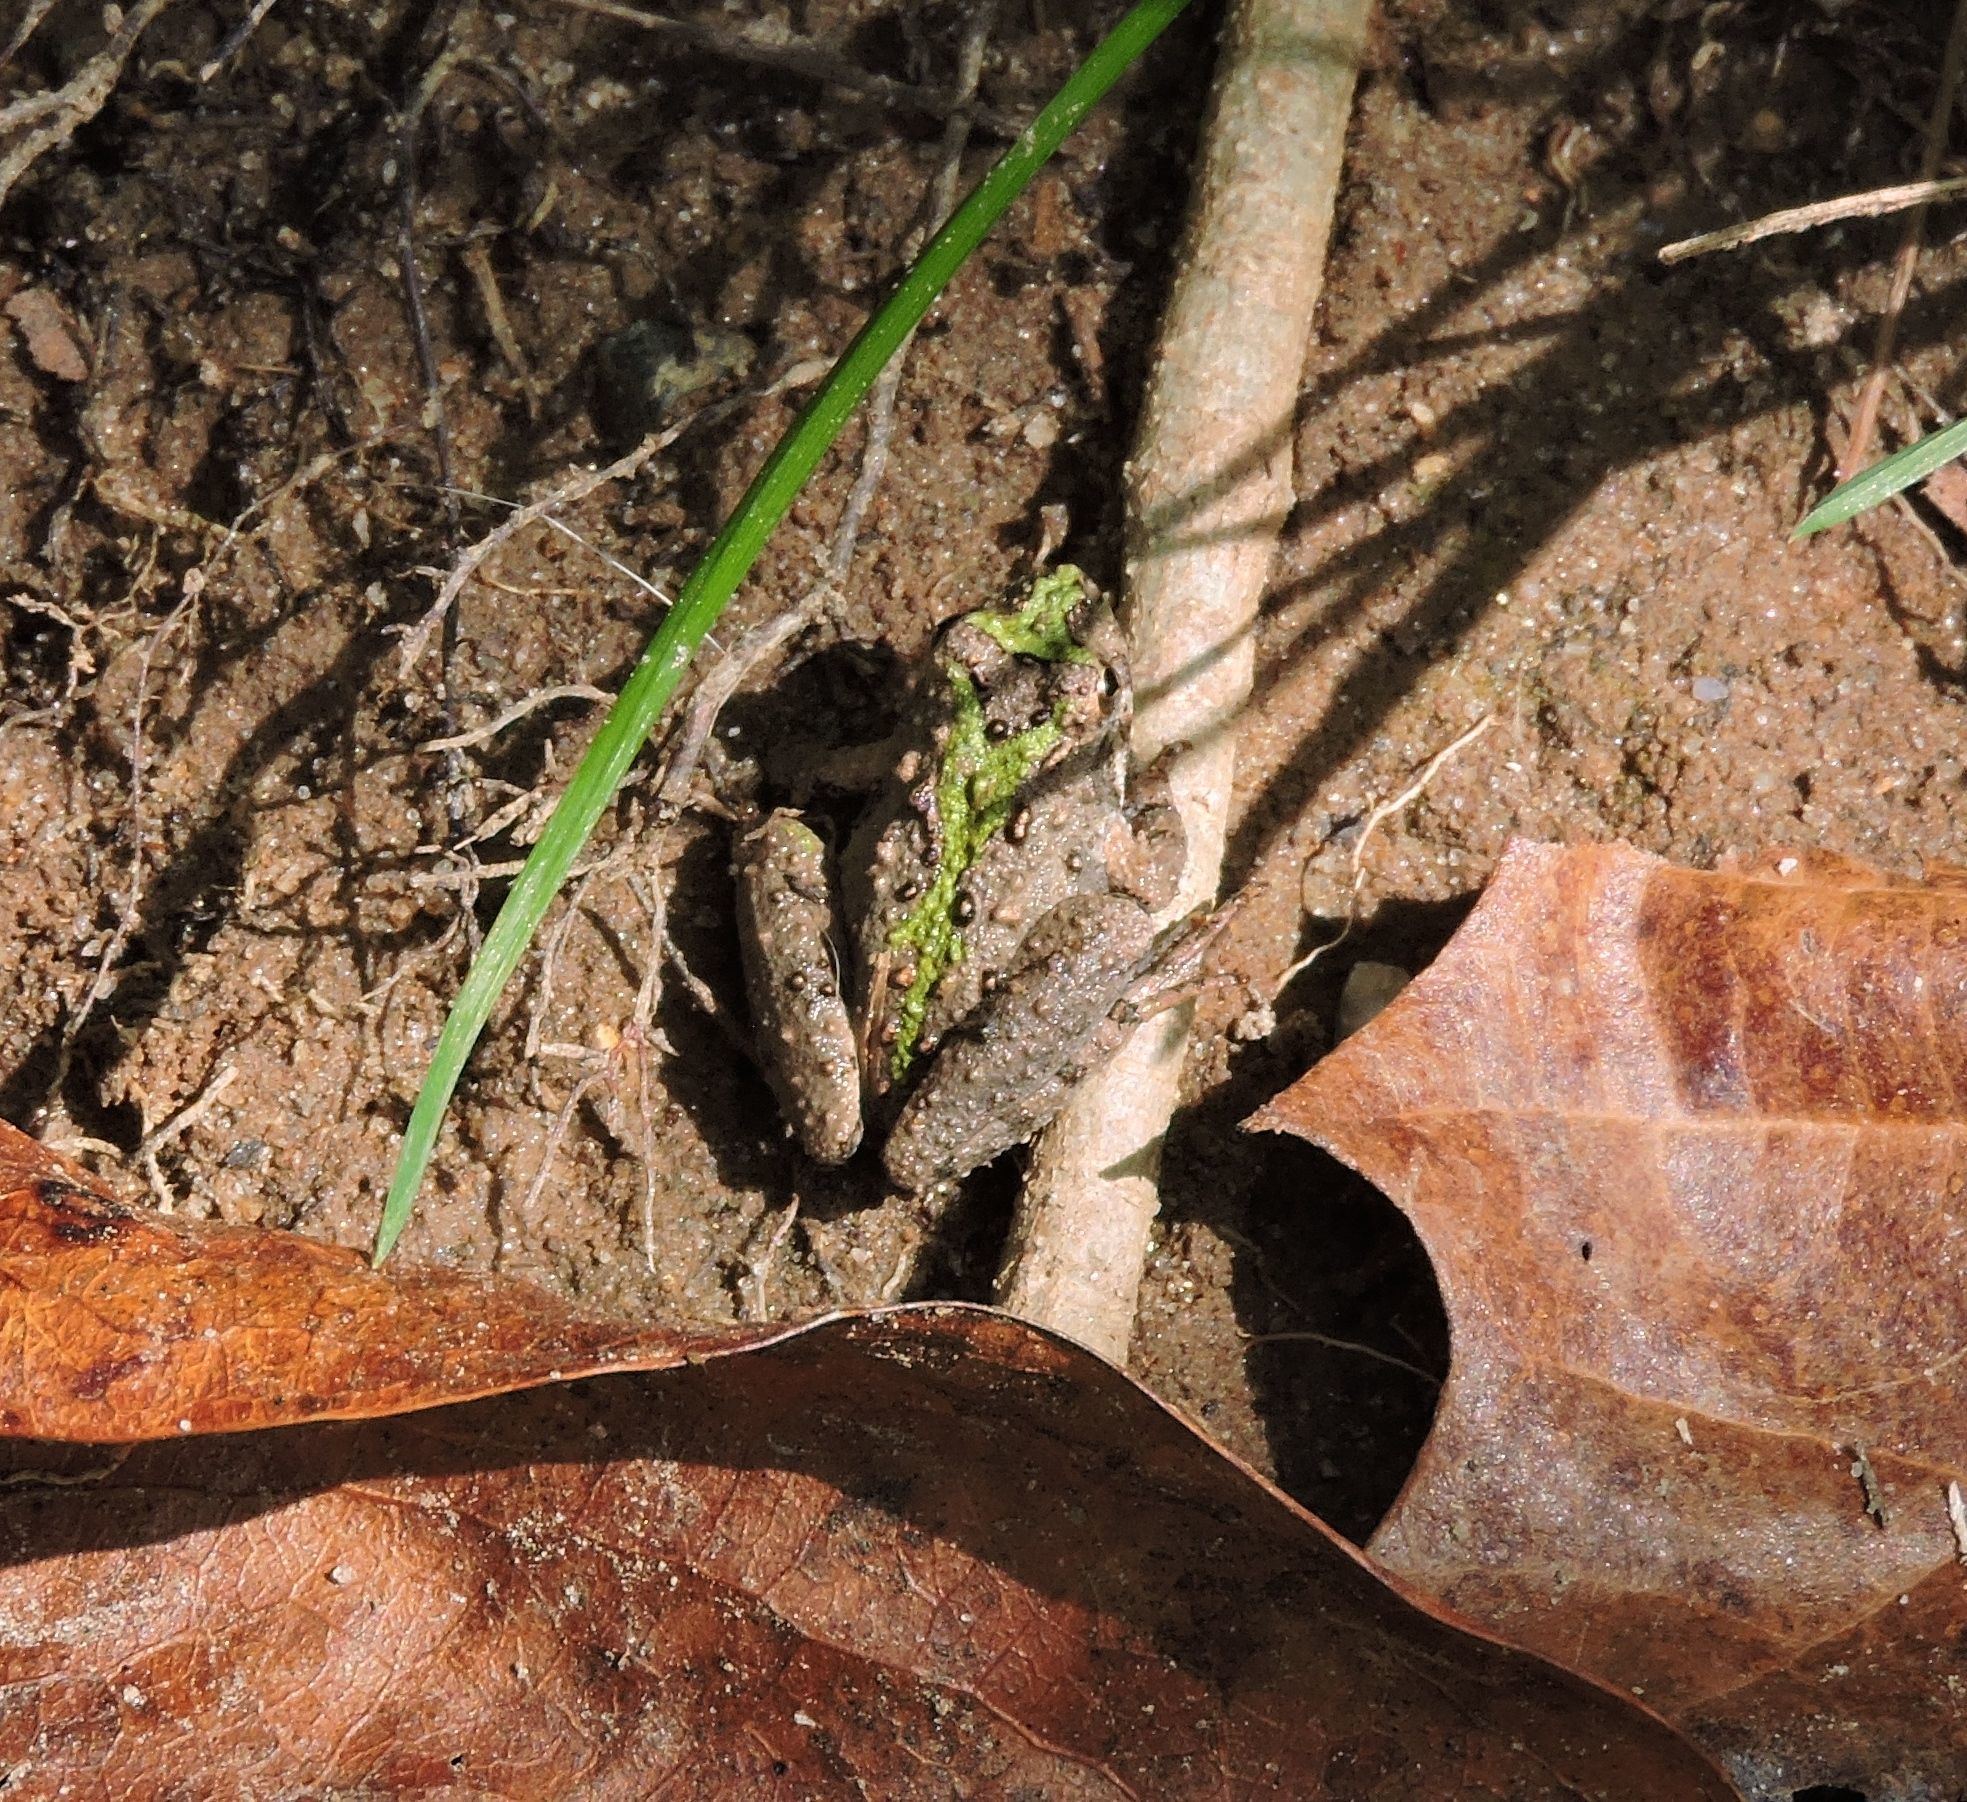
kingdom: Animalia
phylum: Chordata
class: Amphibia
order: Anura
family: Hylidae
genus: Acris
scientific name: Acris crepitans
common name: Northern cricket frog
